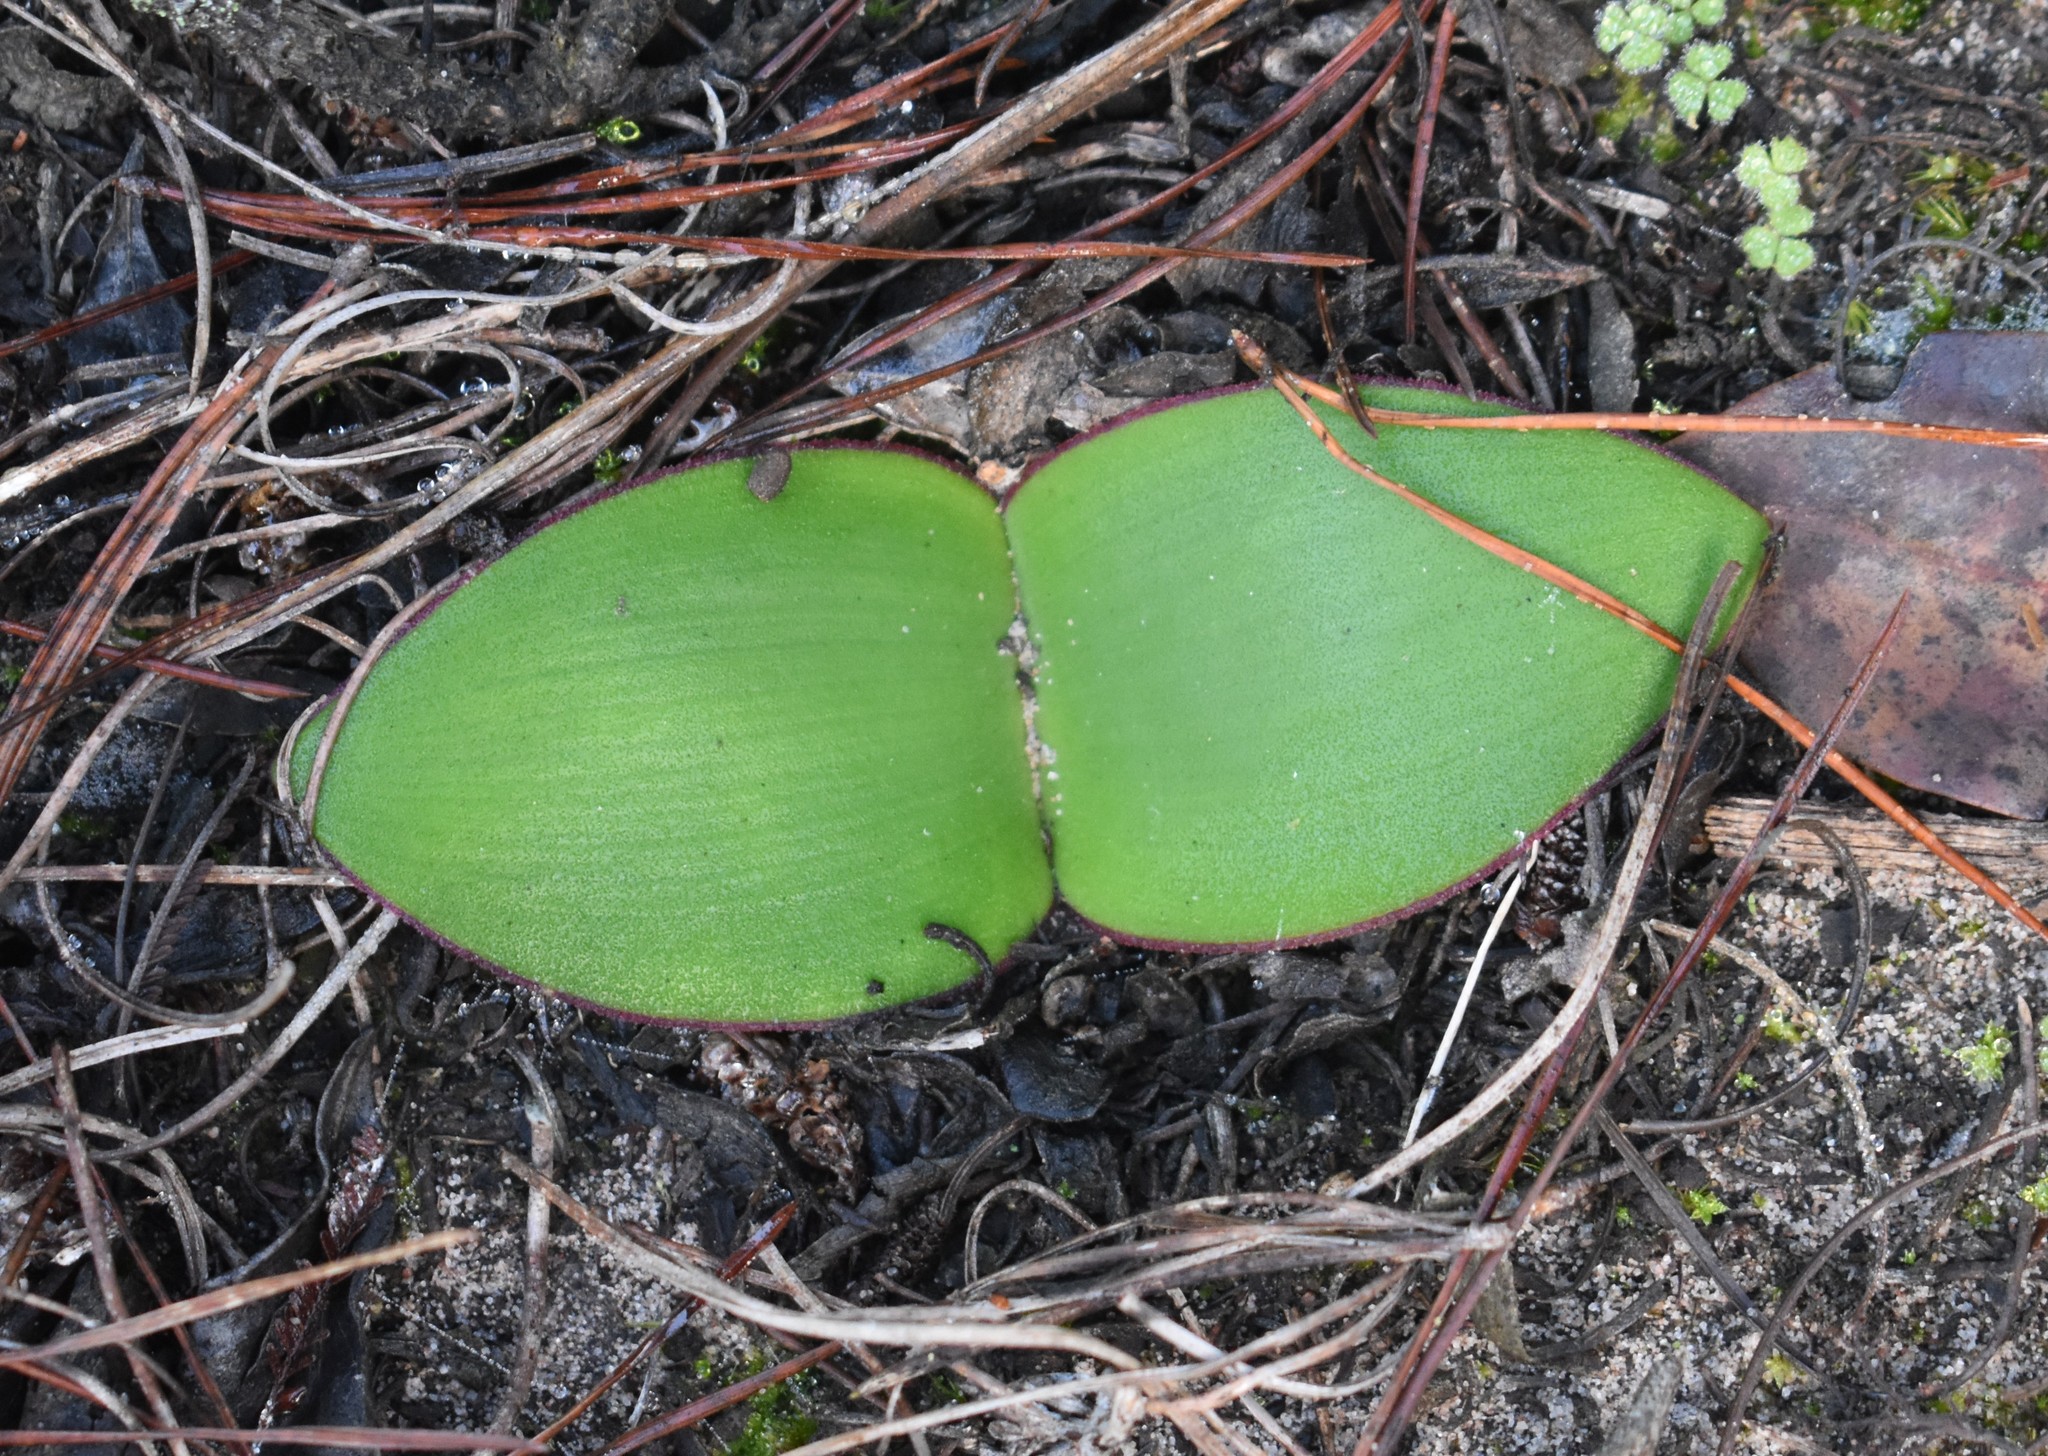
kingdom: Plantae
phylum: Tracheophyta
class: Liliopsida
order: Asparagales
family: Amaryllidaceae
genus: Haemanthus
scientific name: Haemanthus sanguineus
